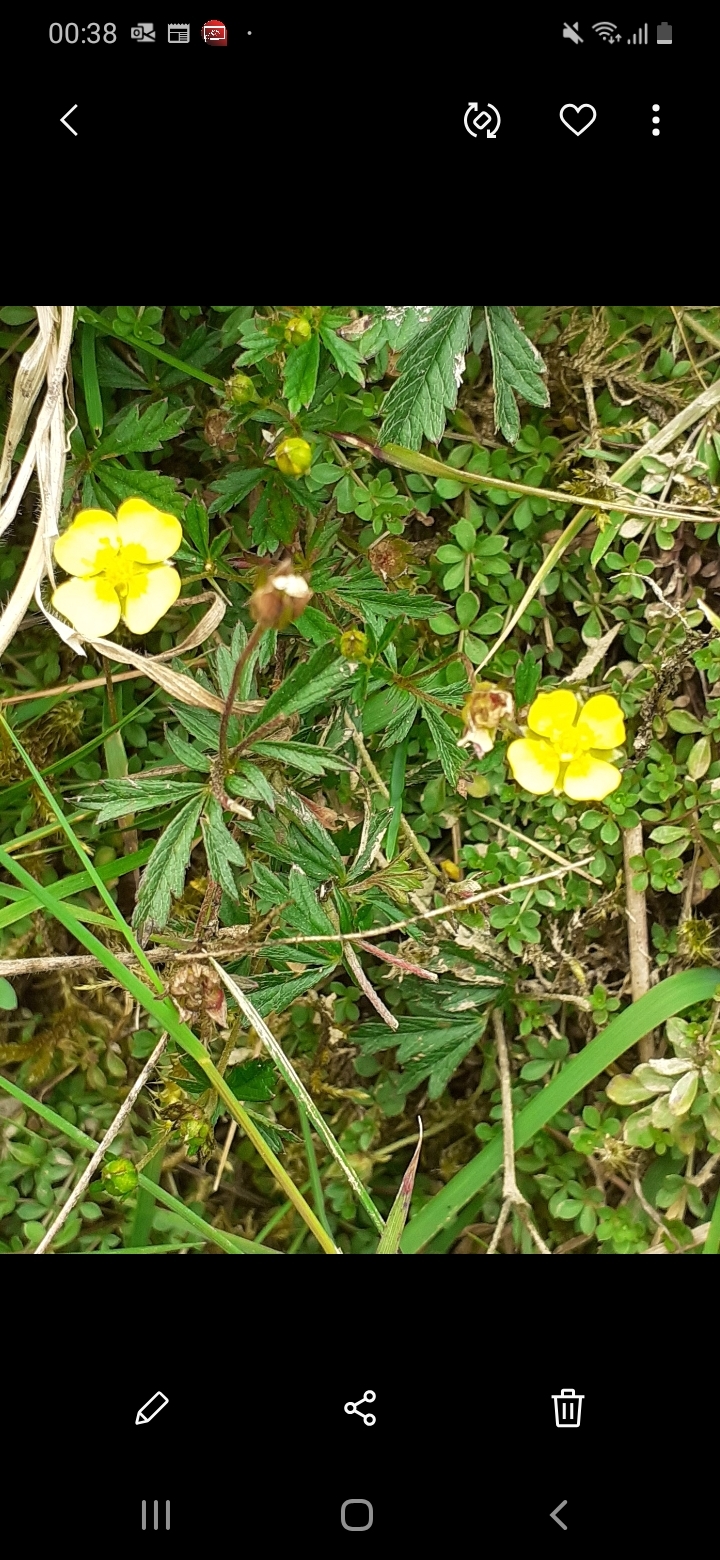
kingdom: Plantae
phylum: Tracheophyta
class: Magnoliopsida
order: Rosales
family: Rosaceae
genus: Potentilla
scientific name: Potentilla erecta
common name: Tormentil
